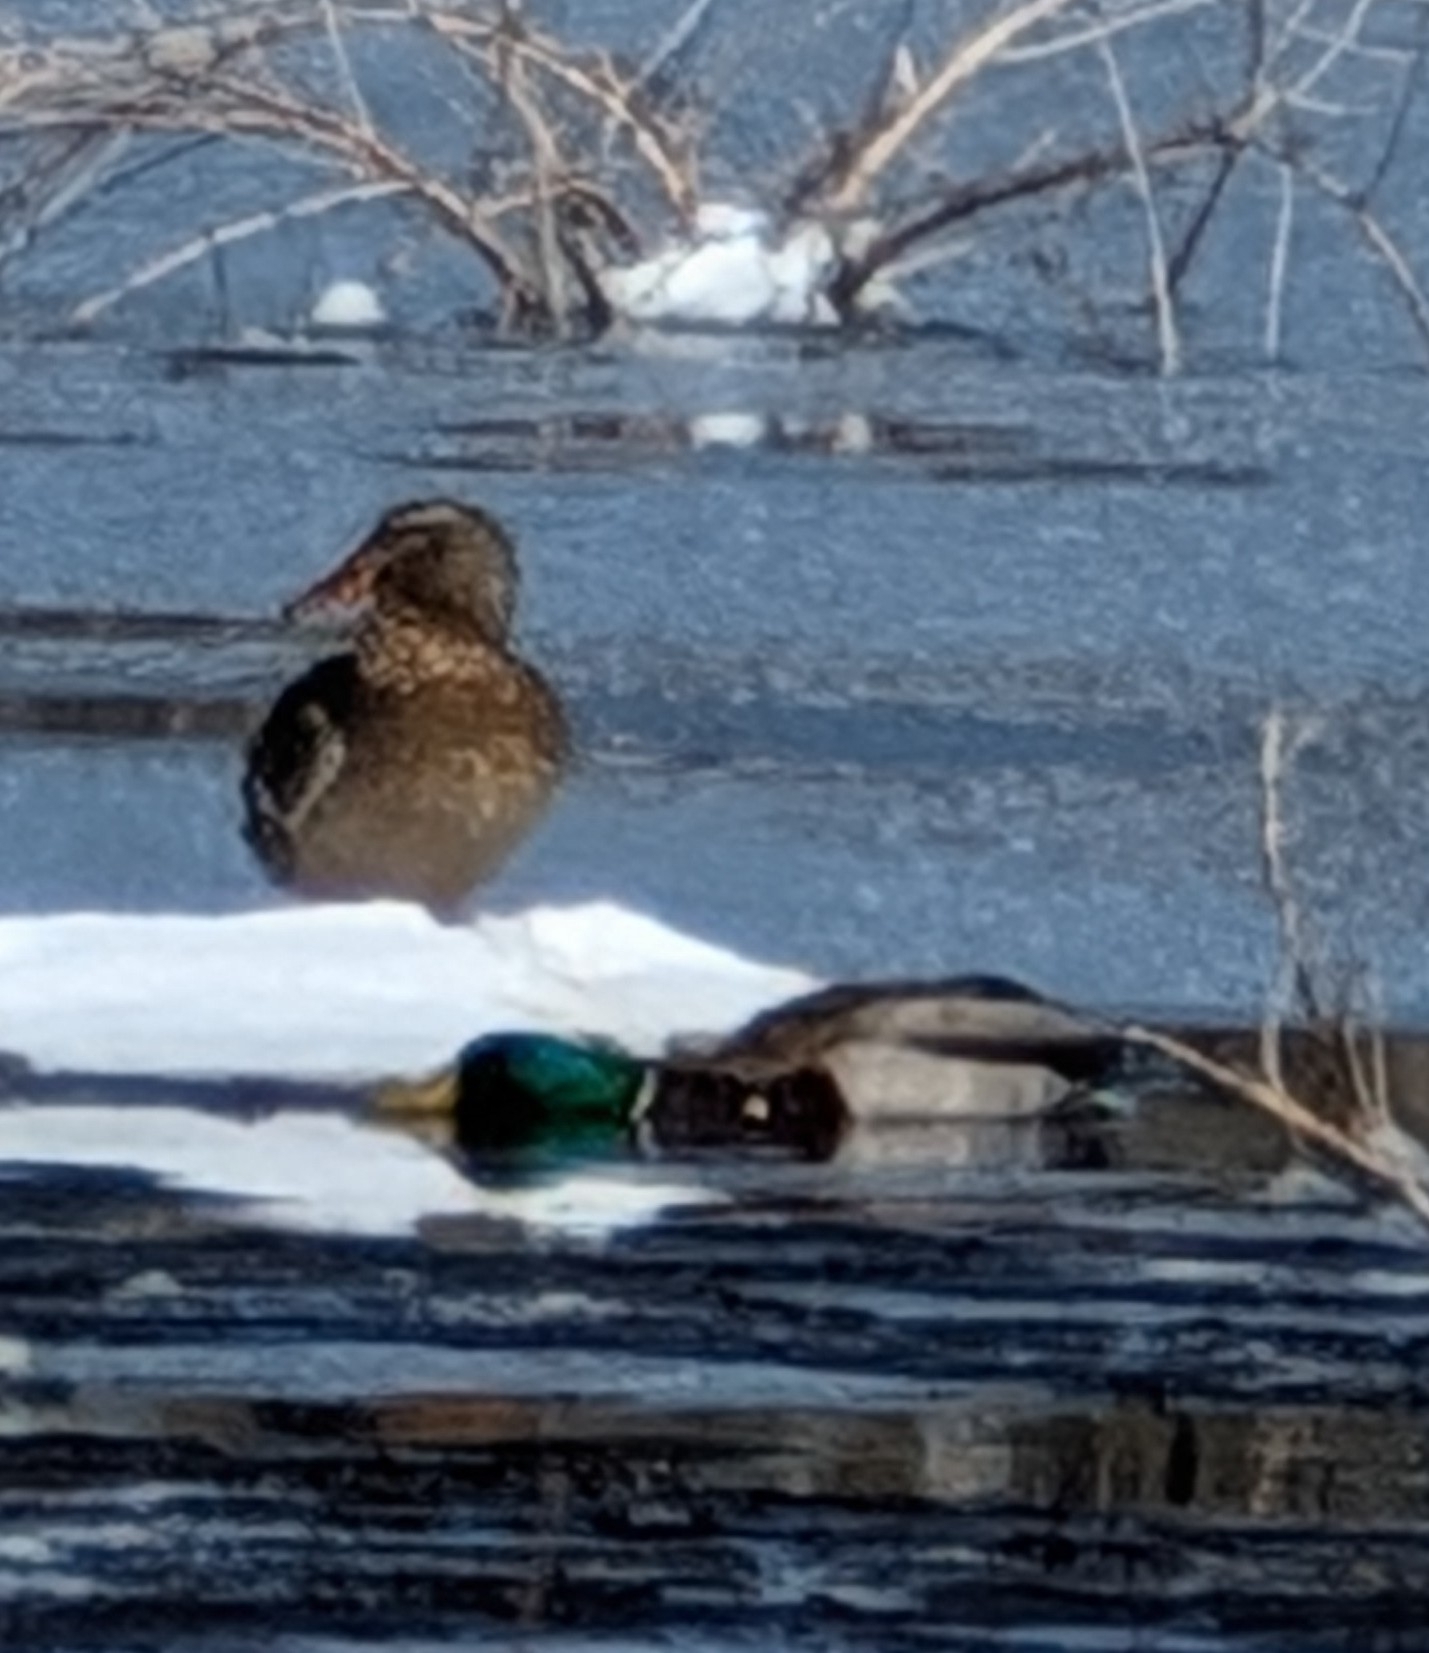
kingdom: Animalia
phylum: Chordata
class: Aves
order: Anseriformes
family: Anatidae
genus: Anas
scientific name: Anas platyrhynchos
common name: Mallard
